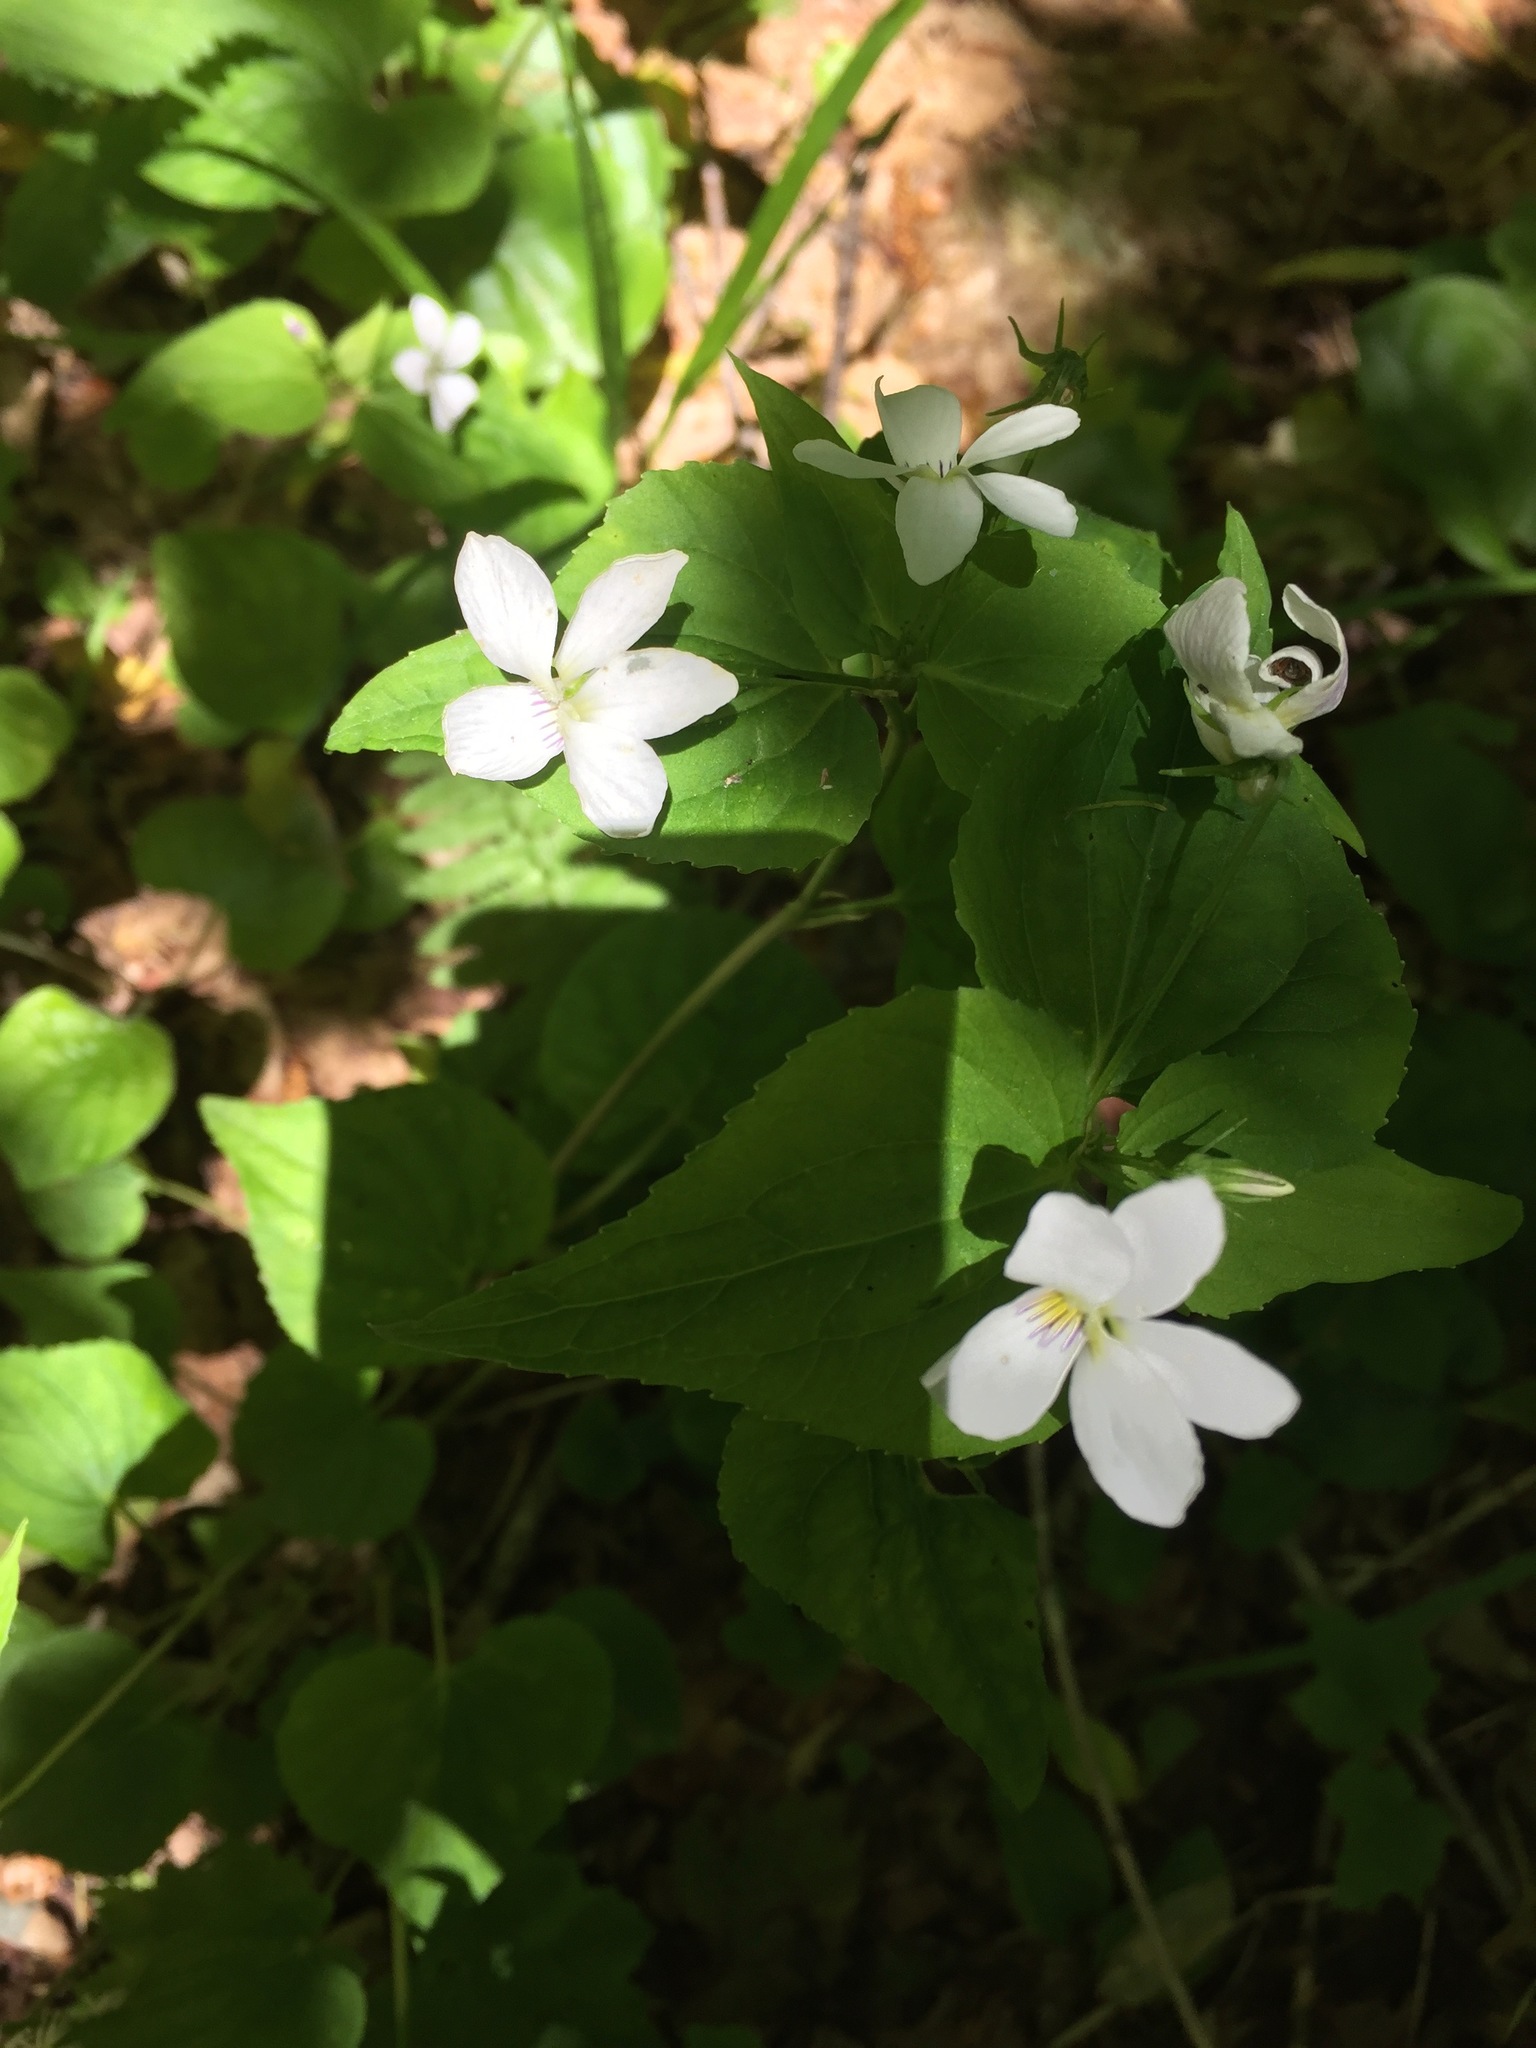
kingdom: Plantae
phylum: Tracheophyta
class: Magnoliopsida
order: Malpighiales
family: Violaceae
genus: Viola
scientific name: Viola canadensis
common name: Canada violet
